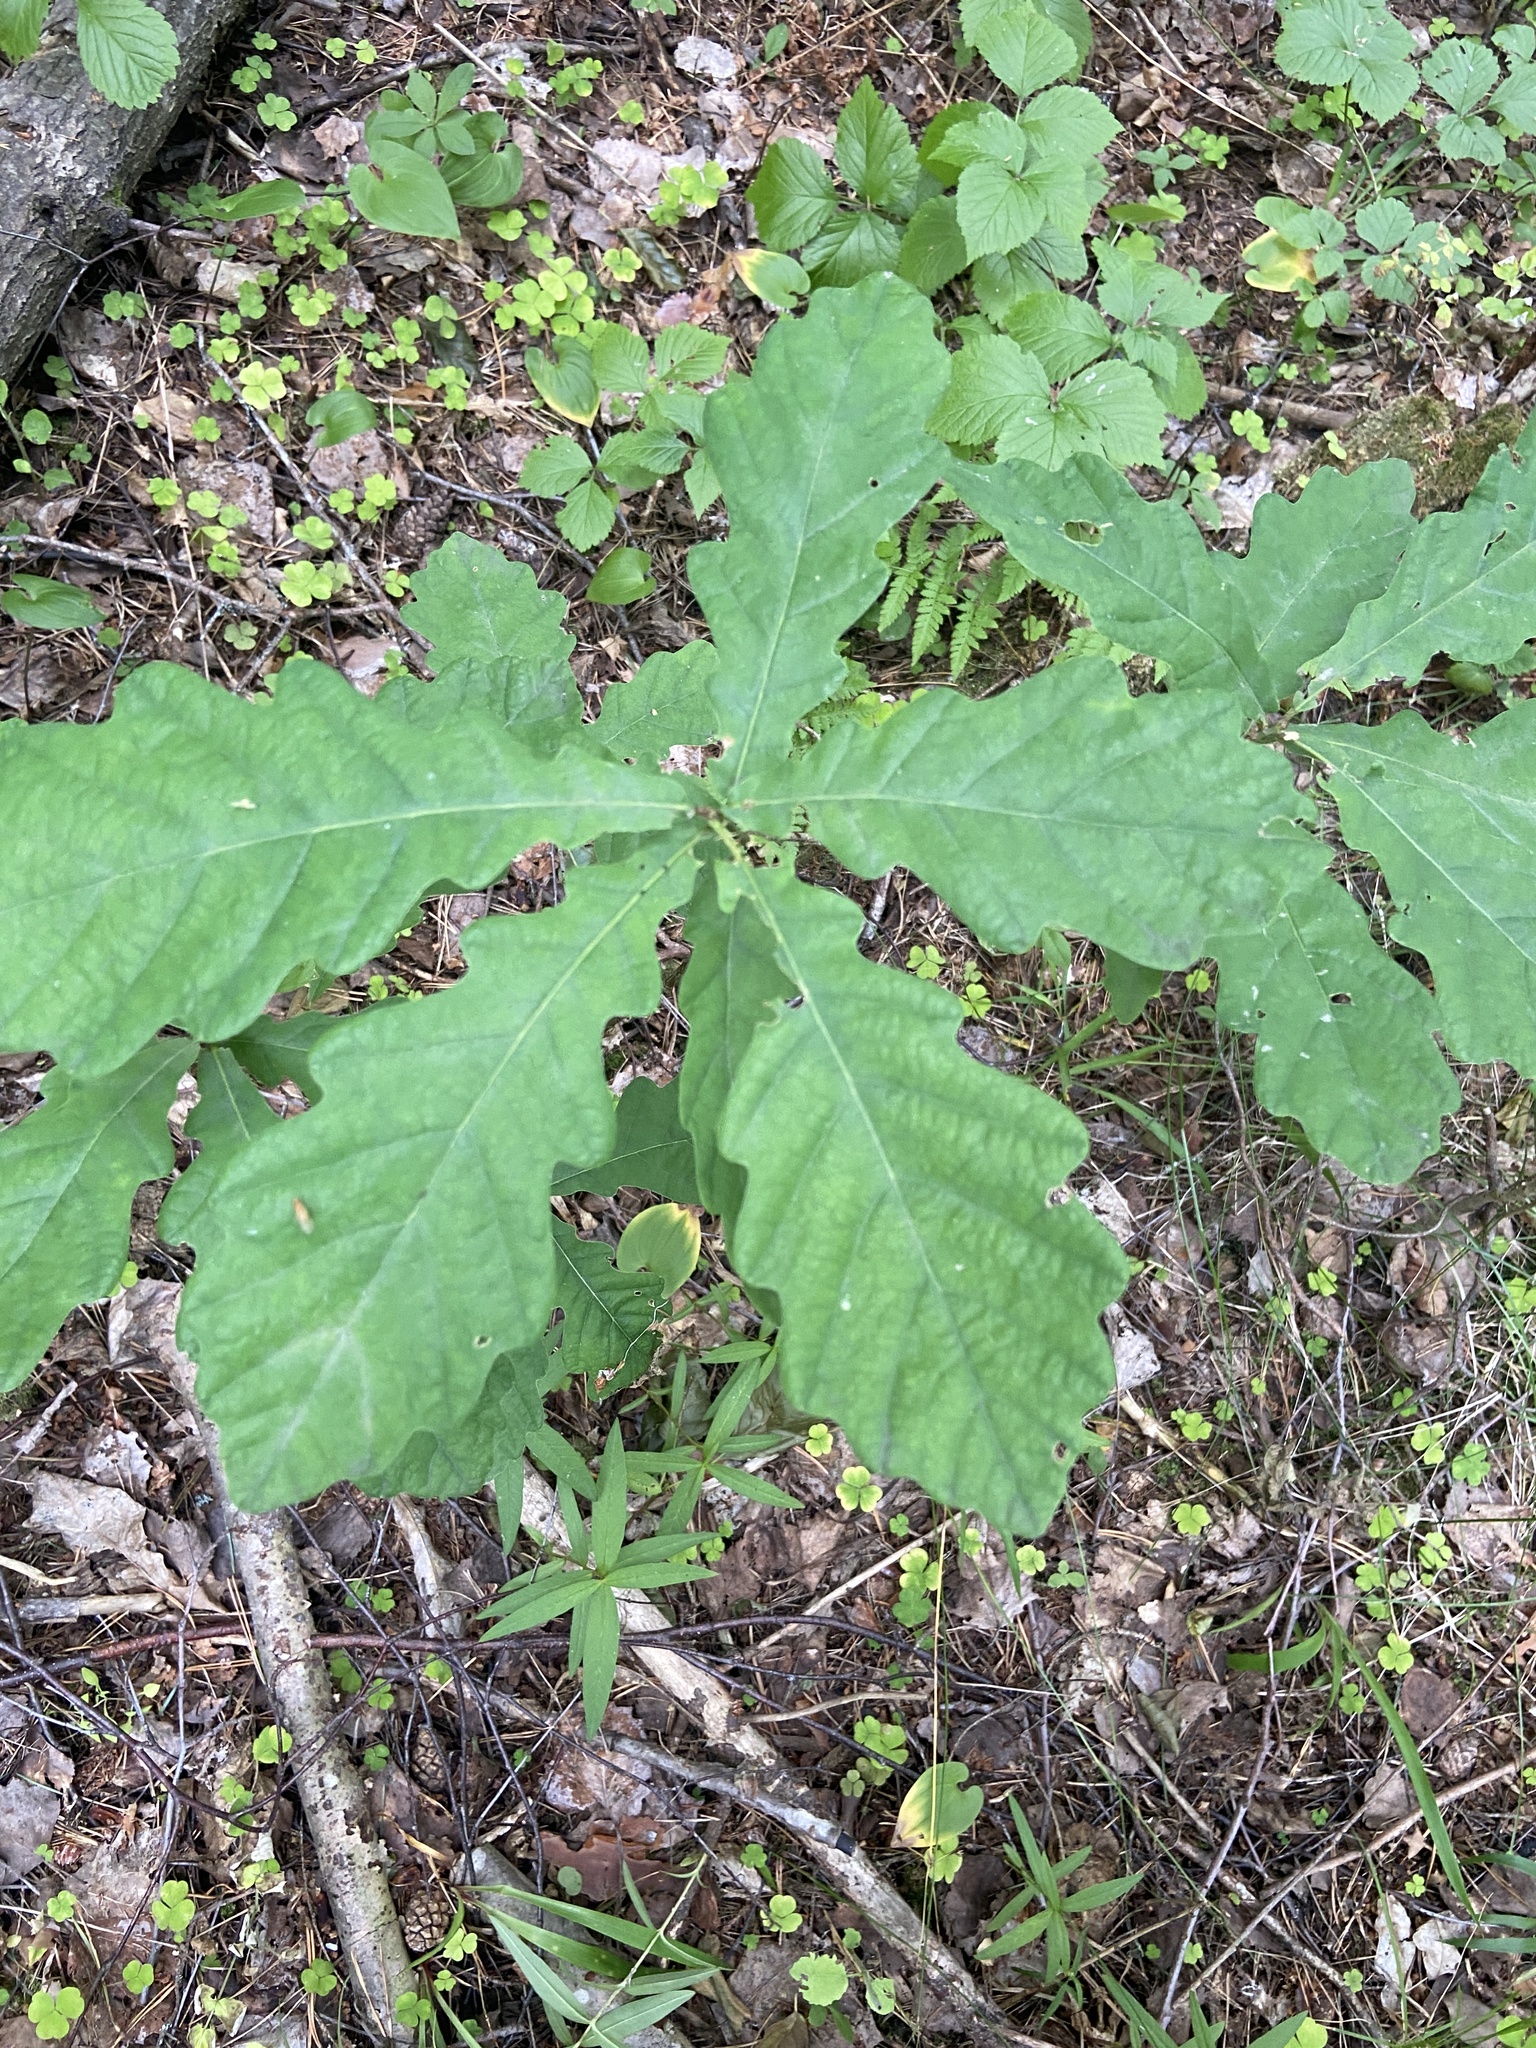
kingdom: Plantae
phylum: Tracheophyta
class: Magnoliopsida
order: Fagales
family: Fagaceae
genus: Quercus
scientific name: Quercus robur
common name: Pedunculate oak
